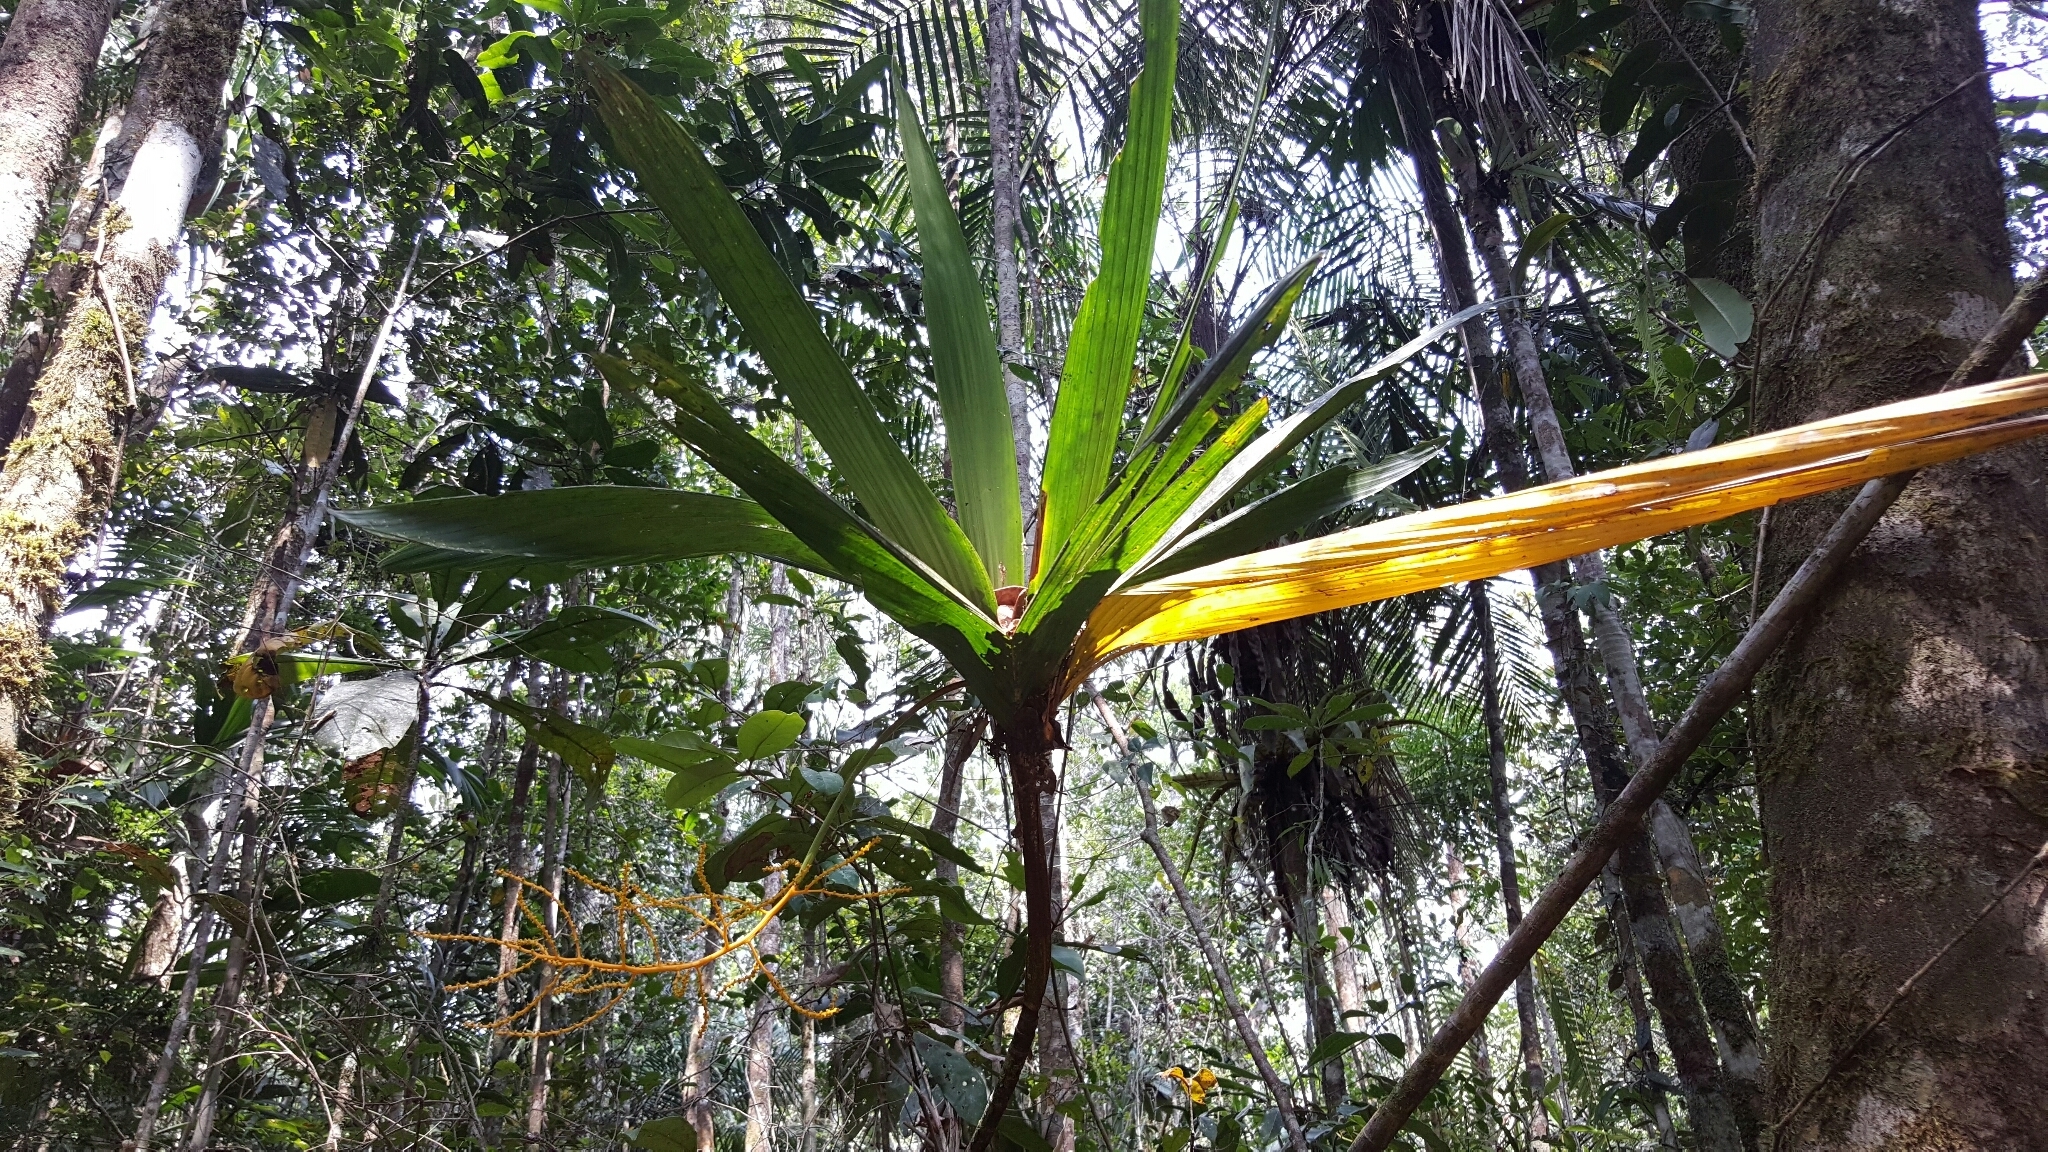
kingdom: Plantae
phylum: Tracheophyta
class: Liliopsida
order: Arecales
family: Arecaceae
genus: Dypsis
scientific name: Dypsis dracaenoides
